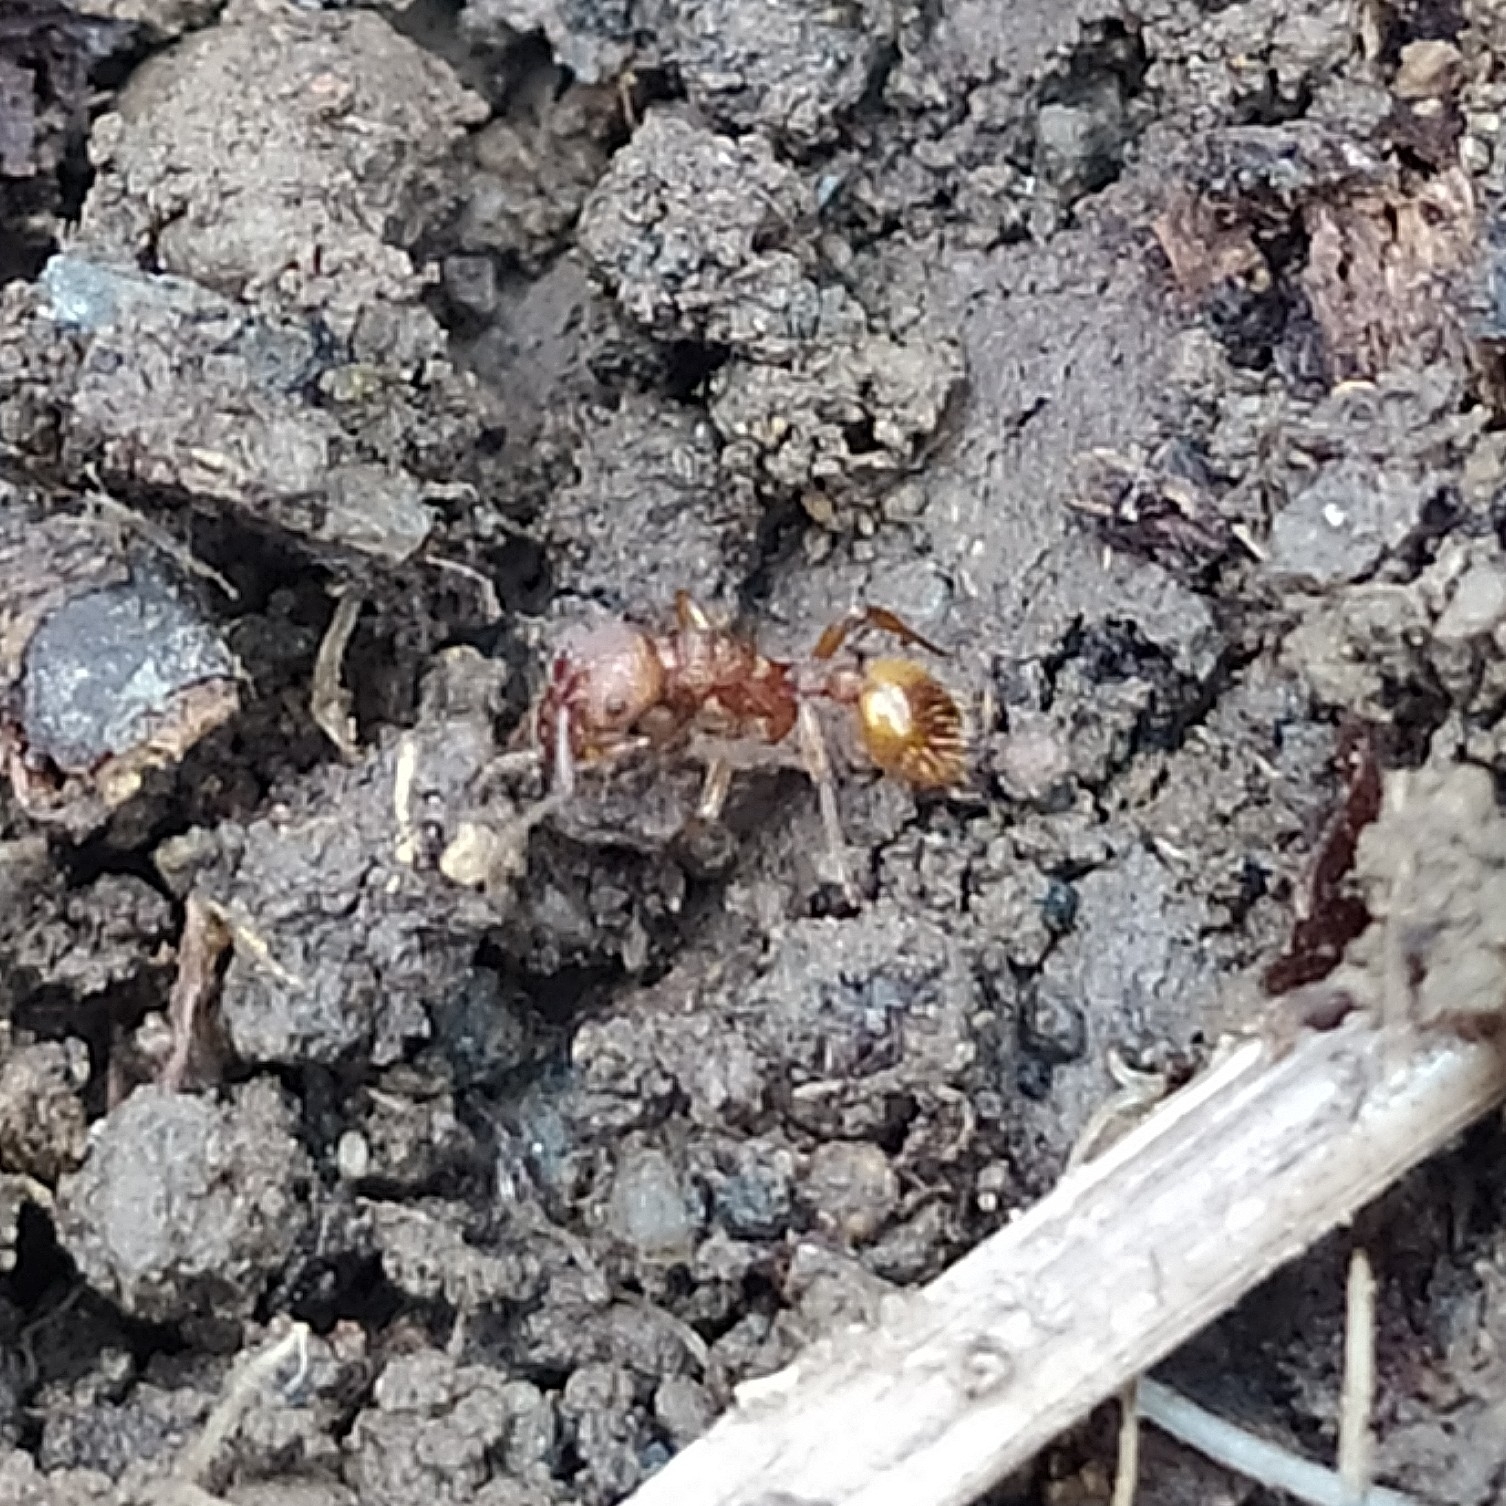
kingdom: Animalia
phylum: Arthropoda
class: Insecta
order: Hymenoptera
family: Formicidae
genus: Myrmica
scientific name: Myrmica
